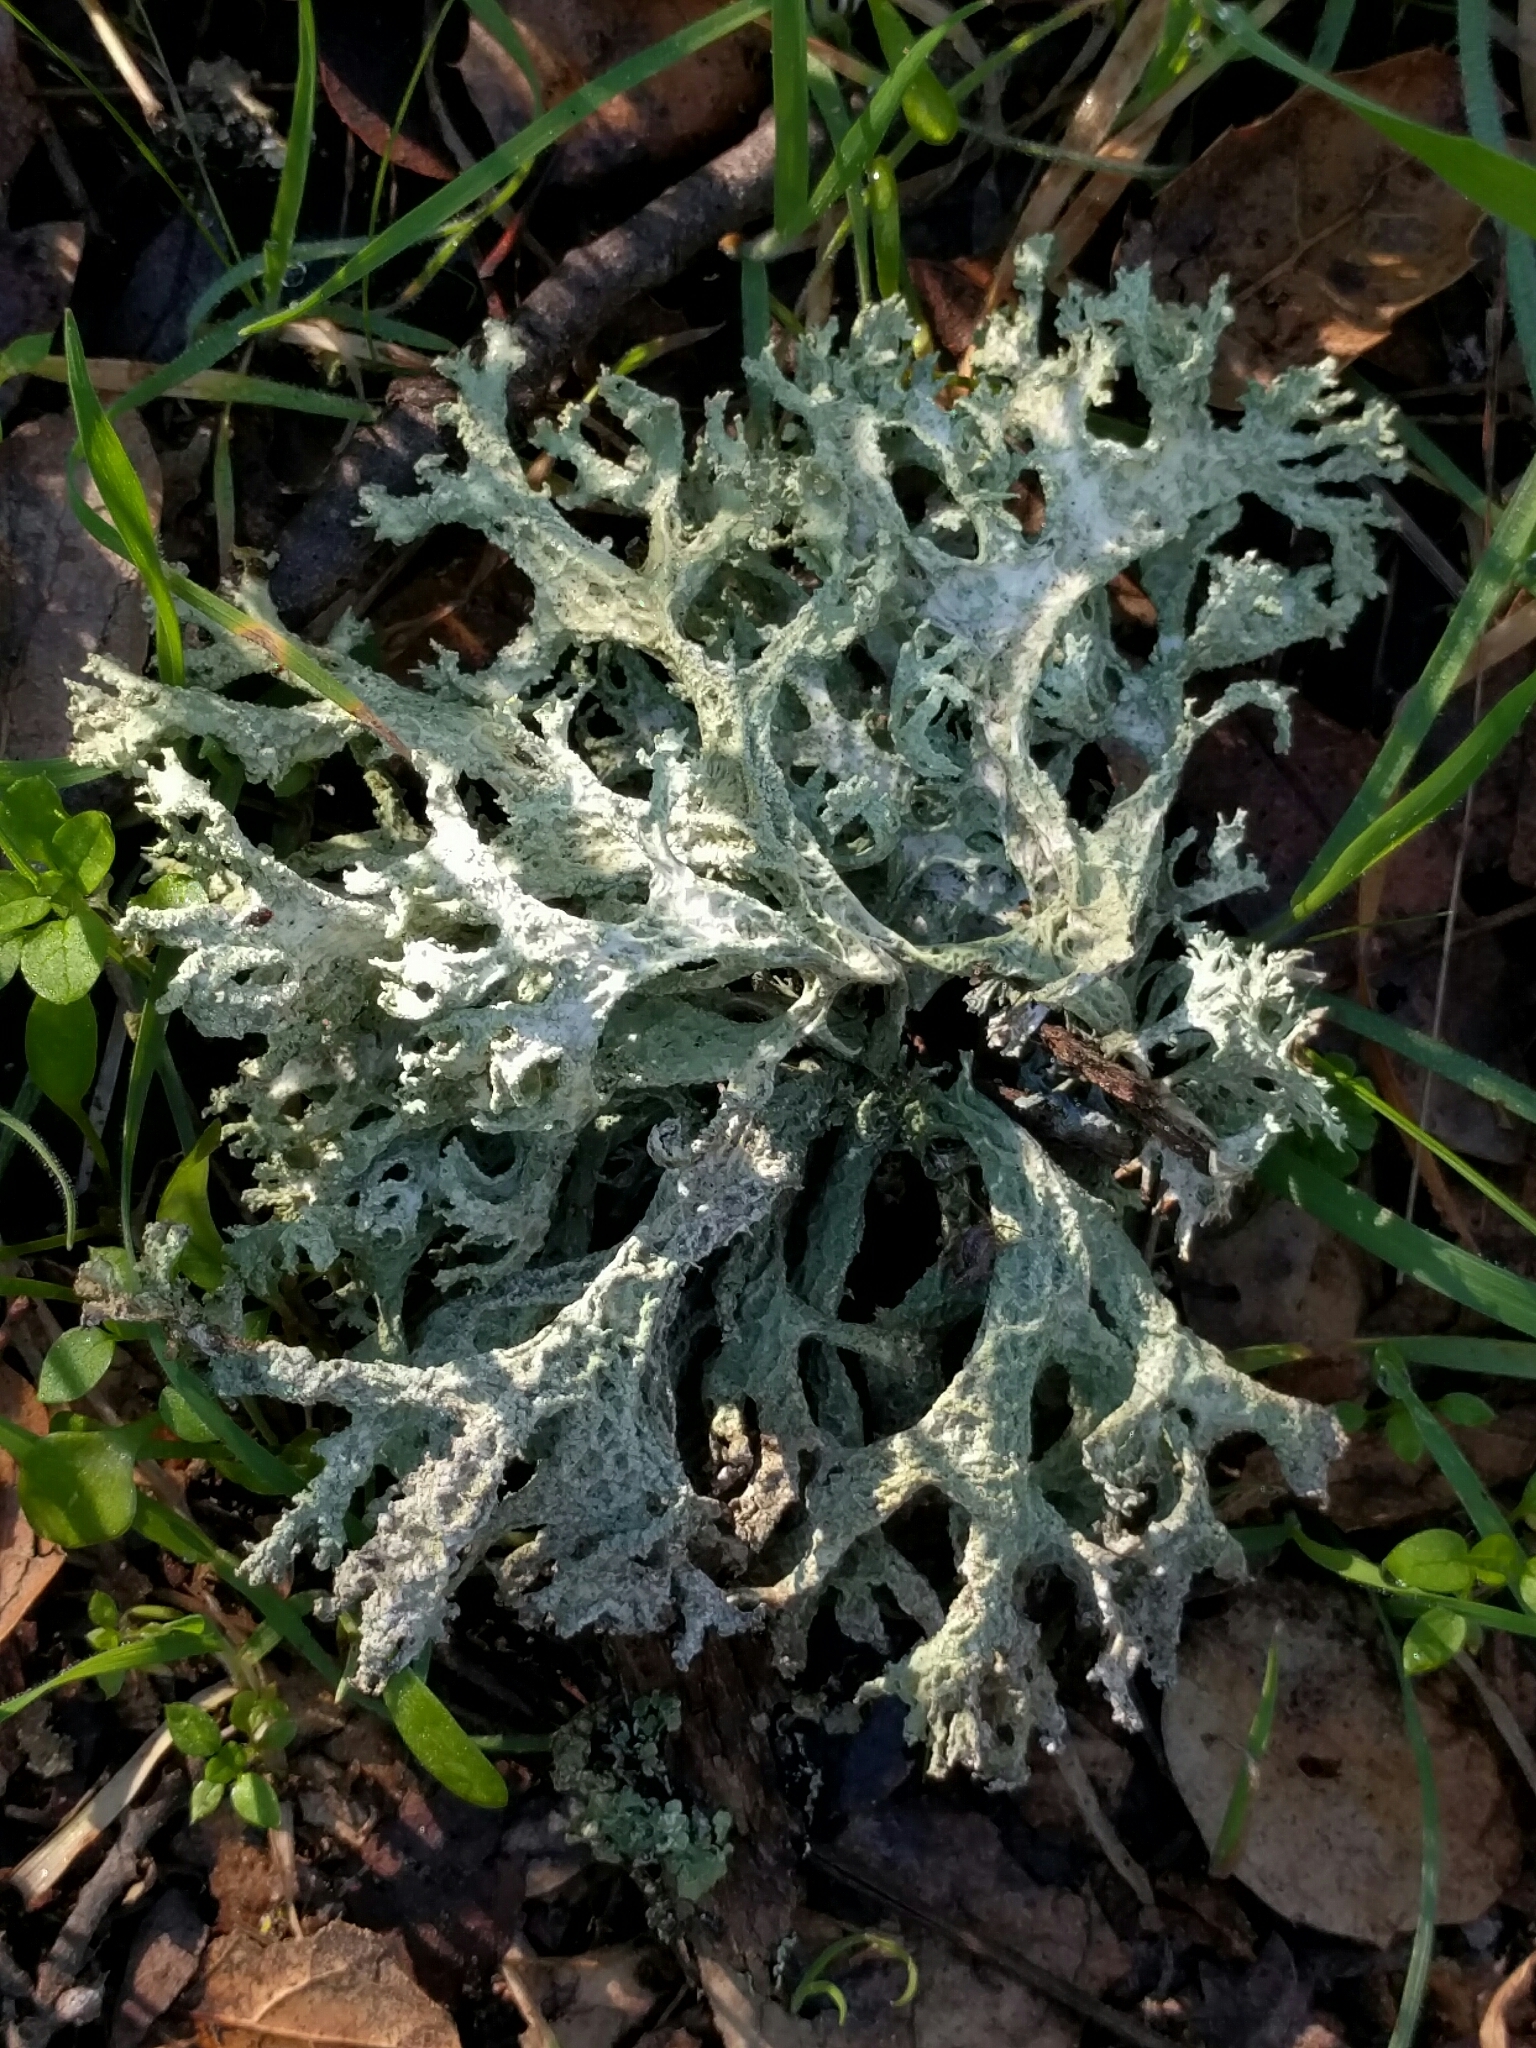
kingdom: Fungi
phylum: Ascomycota
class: Lecanoromycetes
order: Lecanorales
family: Parmeliaceae
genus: Evernia
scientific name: Evernia prunastri
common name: Oak moss
